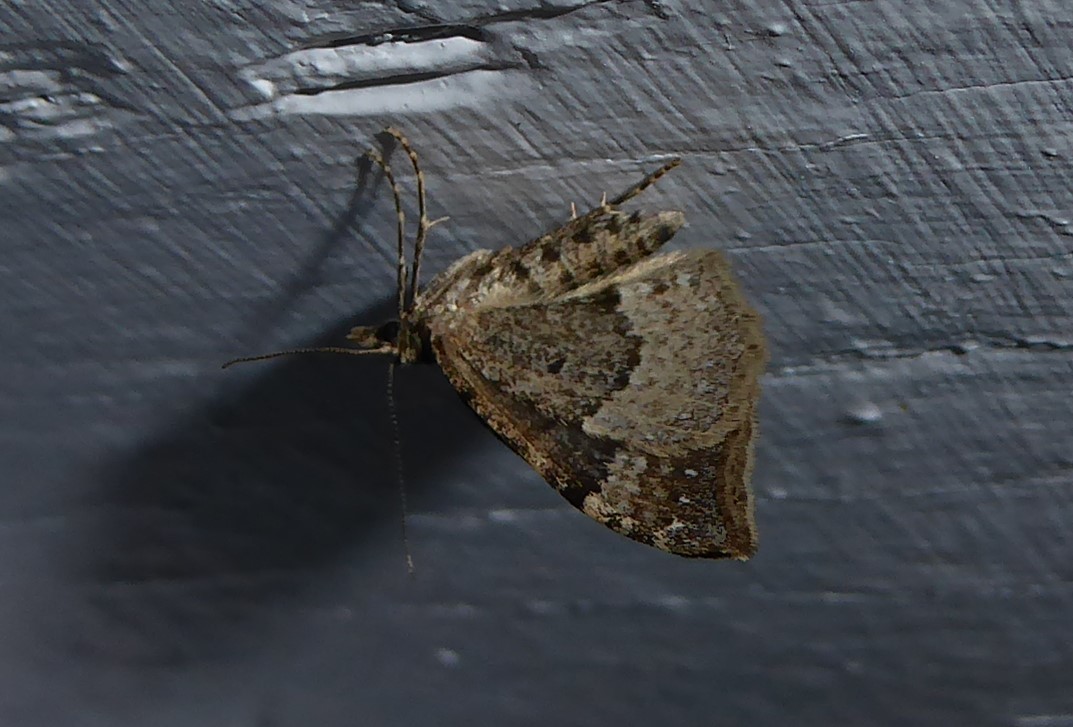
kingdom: Animalia
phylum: Arthropoda
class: Insecta
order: Lepidoptera
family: Geometridae
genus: Homodotis
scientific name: Homodotis falcata
